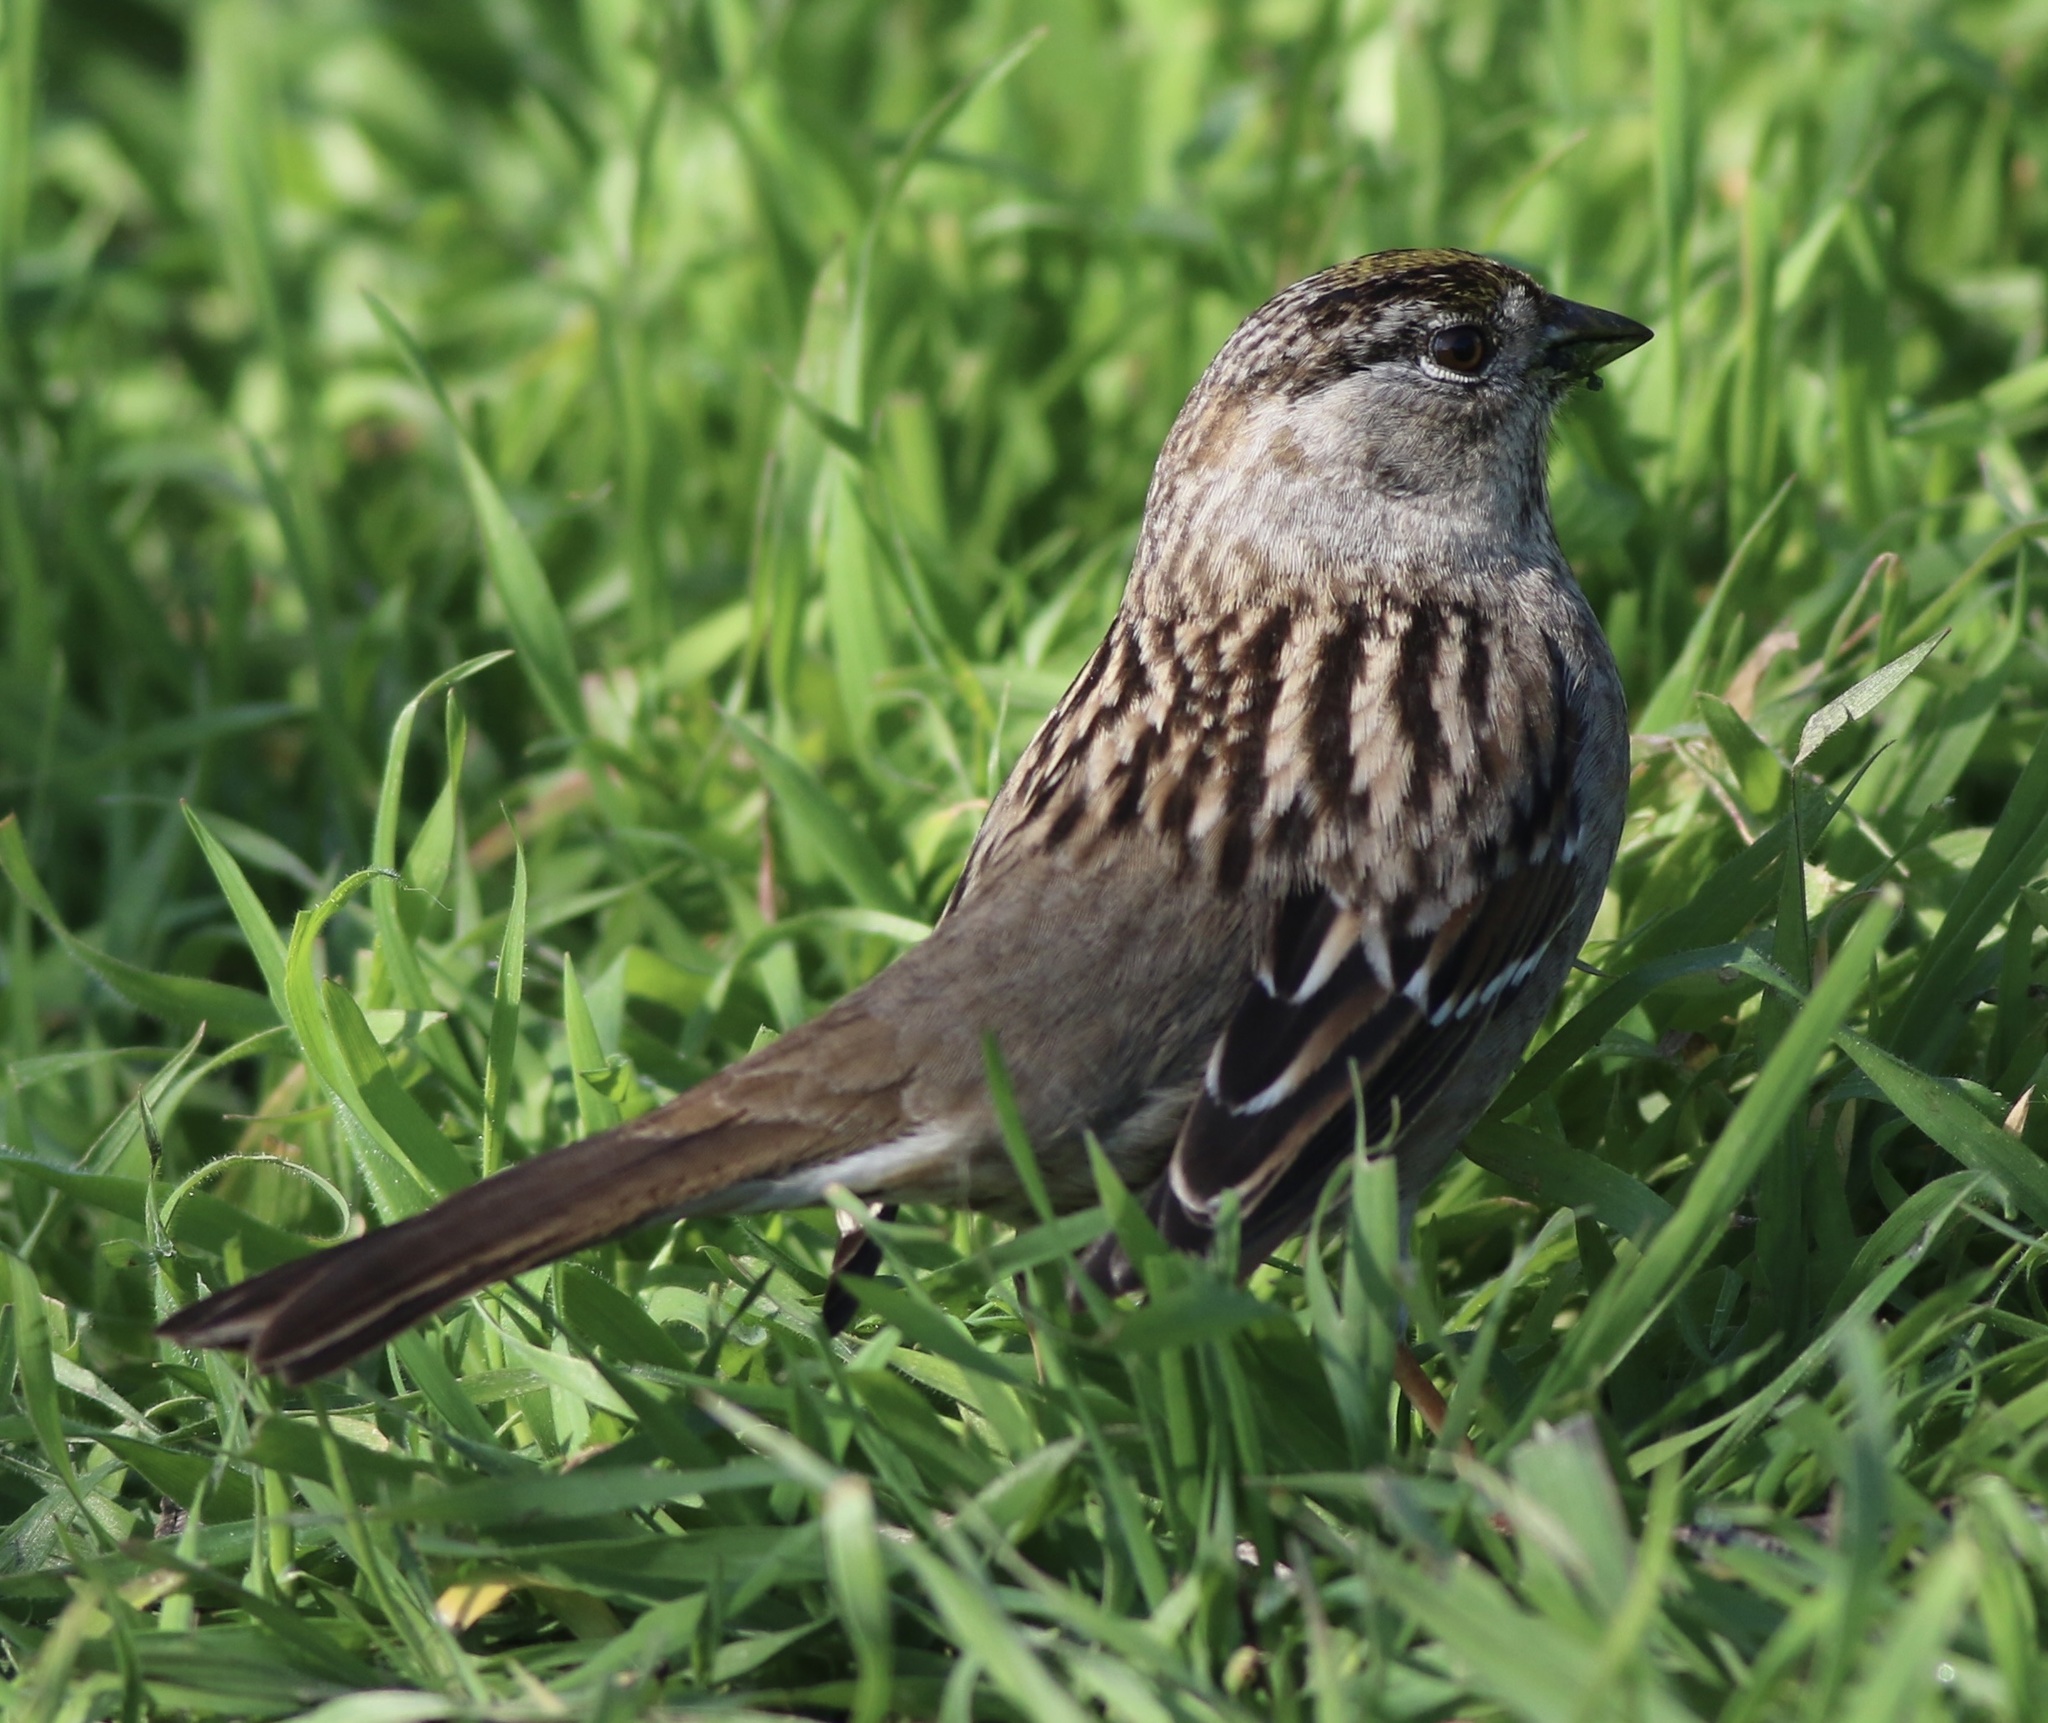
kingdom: Animalia
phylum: Chordata
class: Aves
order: Passeriformes
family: Passerellidae
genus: Zonotrichia
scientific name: Zonotrichia atricapilla
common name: Golden-crowned sparrow
